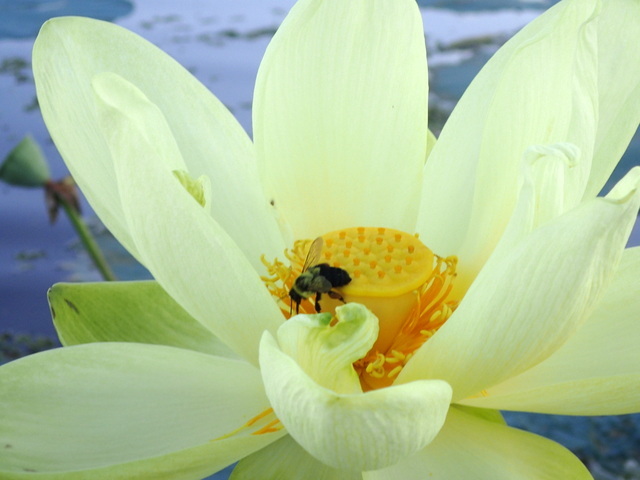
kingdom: Animalia
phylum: Arthropoda
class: Insecta
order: Hymenoptera
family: Apidae
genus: Bombus
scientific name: Bombus impatiens
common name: Common eastern bumble bee
